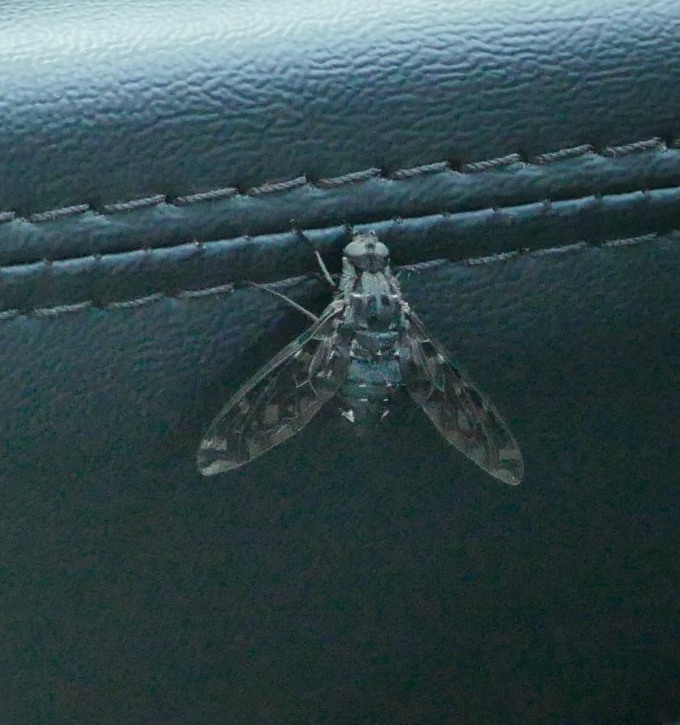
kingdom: Animalia
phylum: Arthropoda
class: Insecta
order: Diptera
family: Bombyliidae
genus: Xenox
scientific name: Xenox tigrinus
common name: Tiger bee fly
